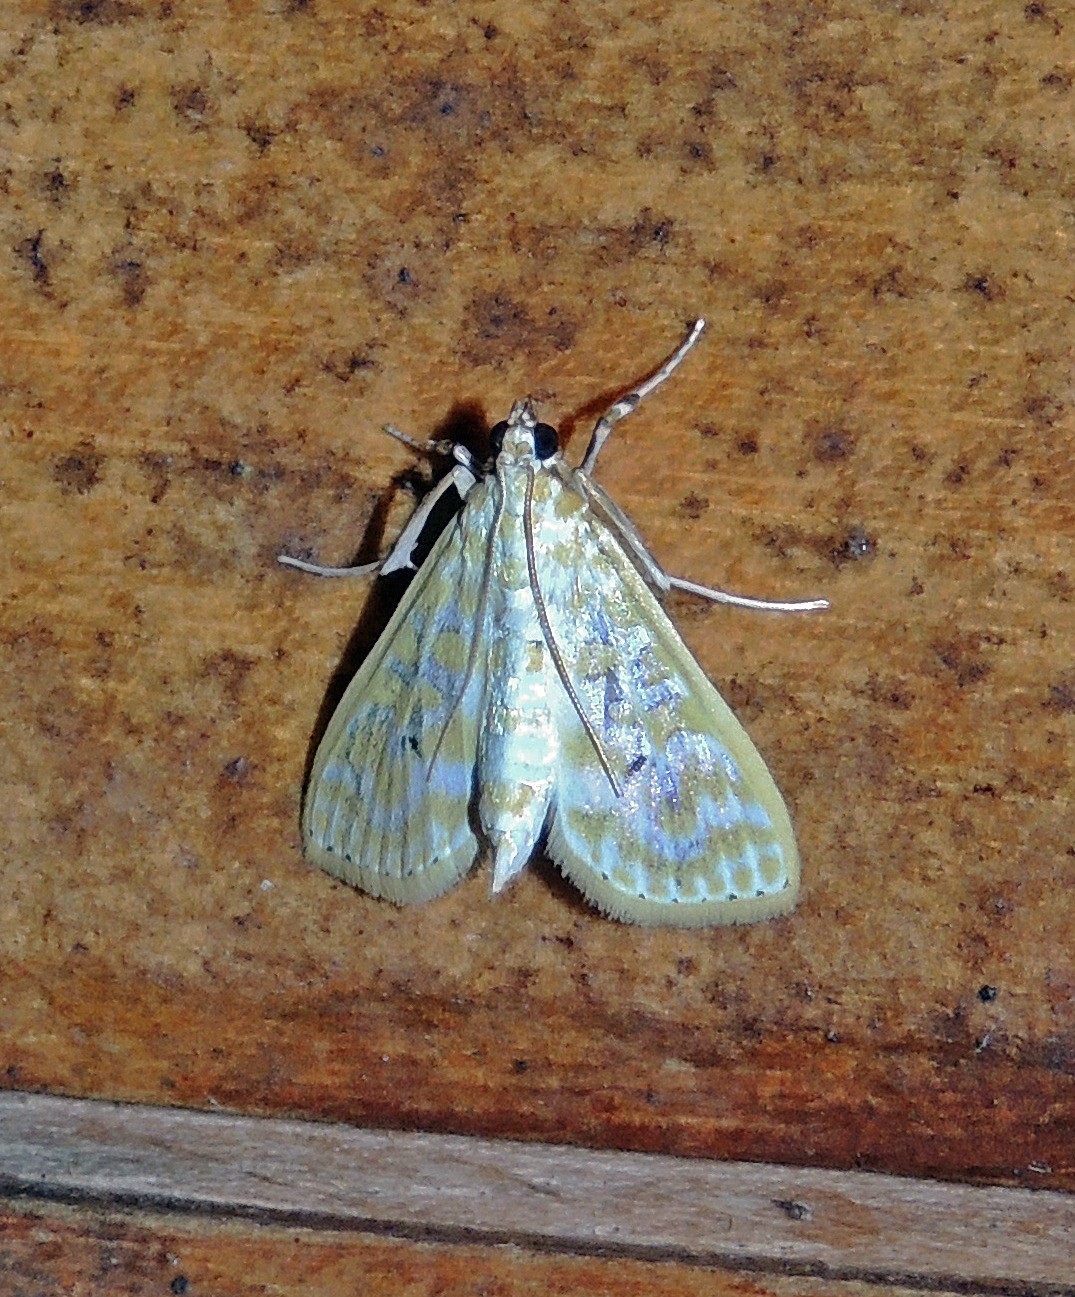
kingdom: Animalia
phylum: Arthropoda
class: Insecta
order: Lepidoptera
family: Crambidae
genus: Leucochroma
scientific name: Leucochroma corope
